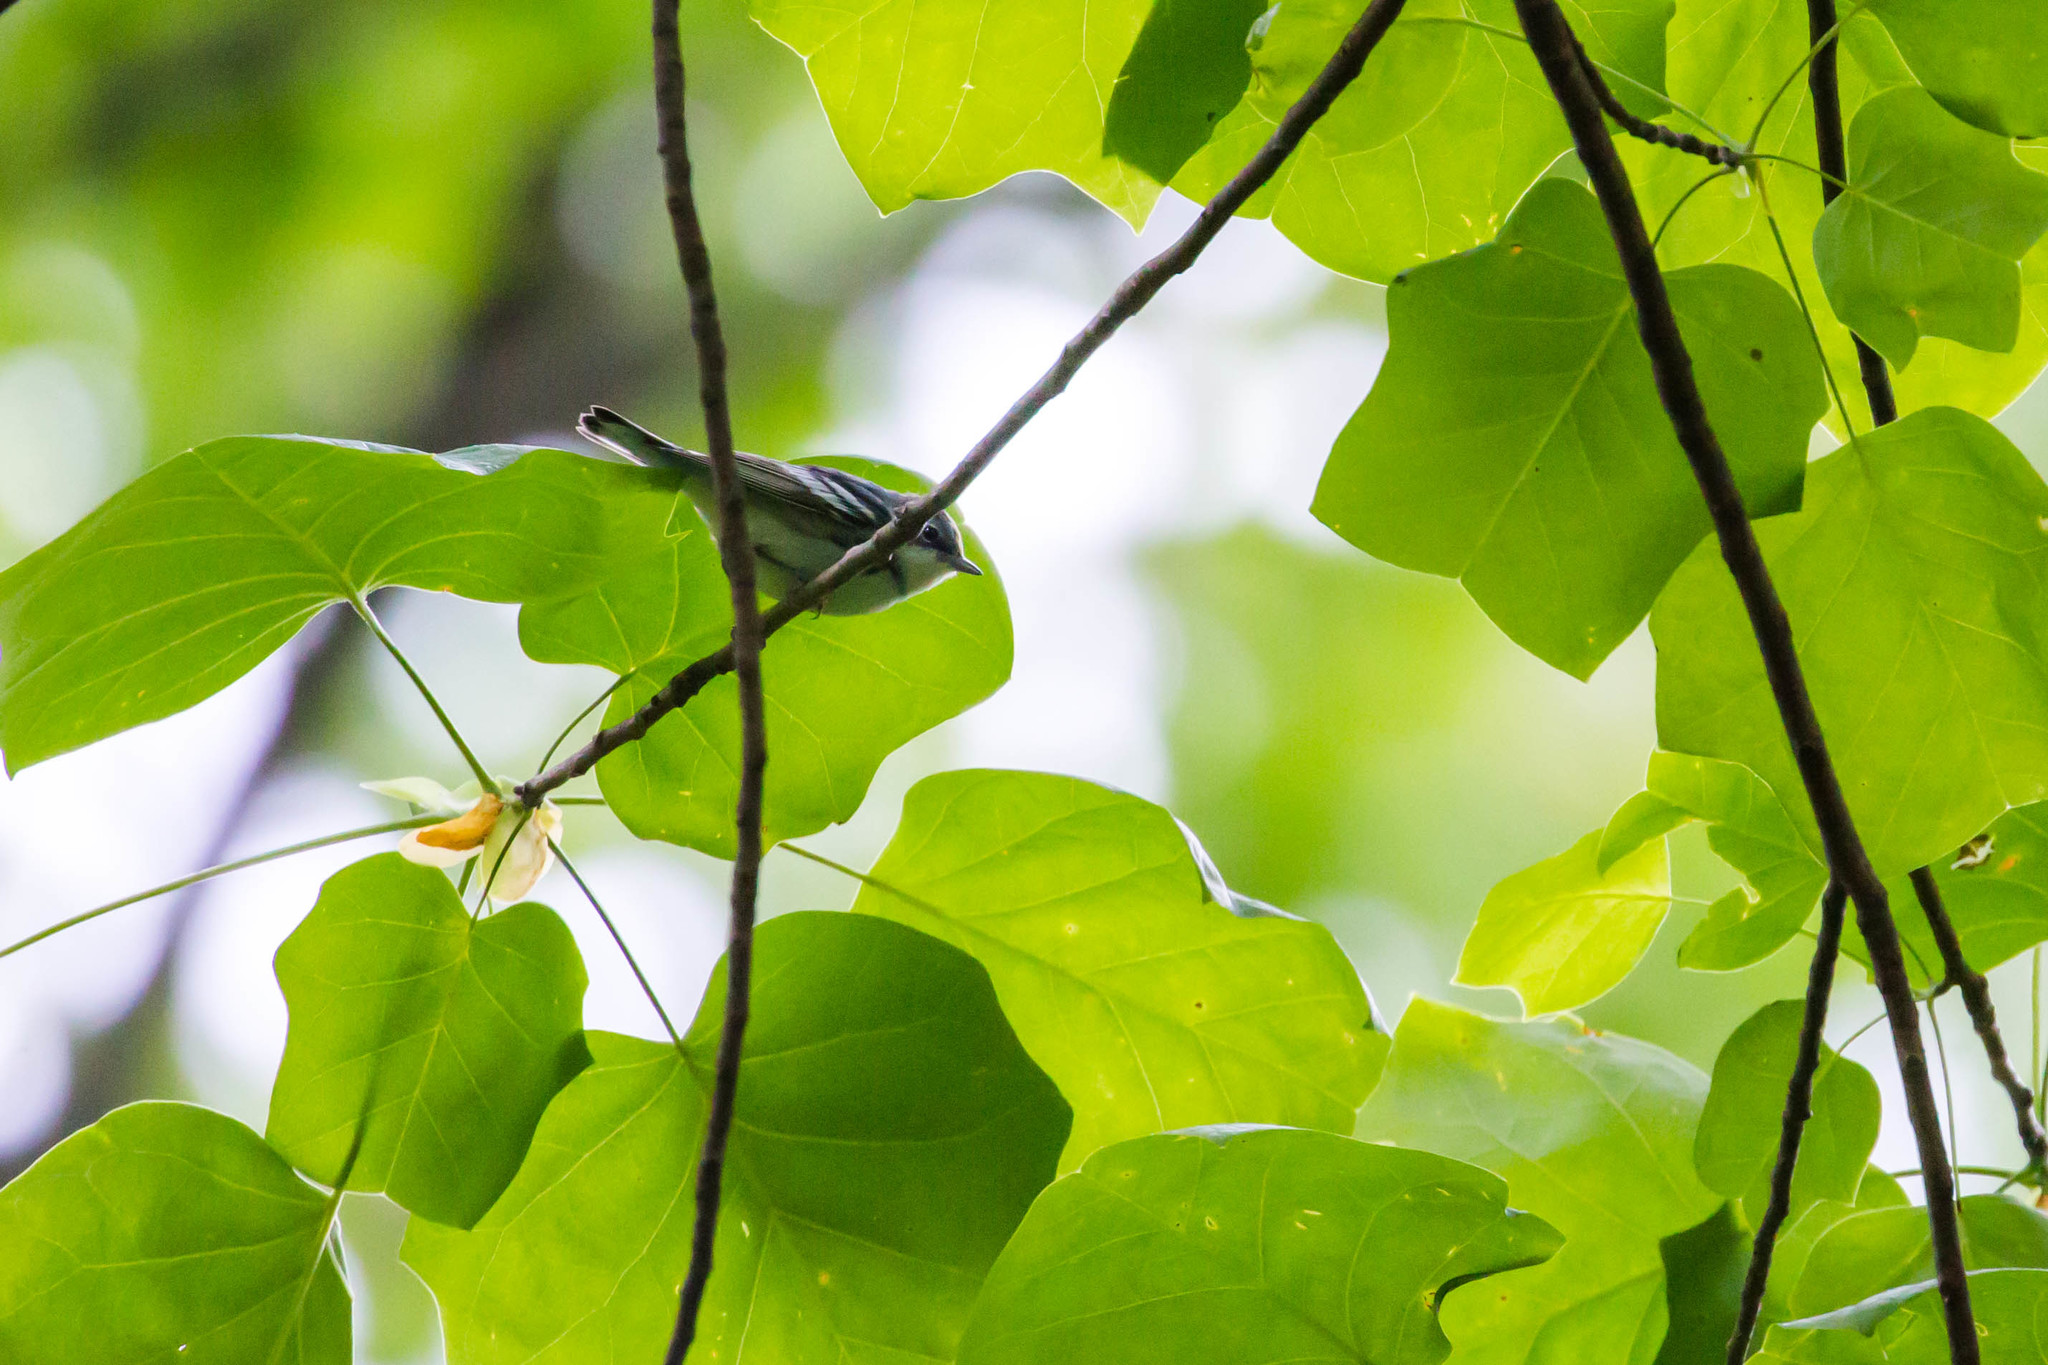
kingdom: Animalia
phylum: Chordata
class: Aves
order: Passeriformes
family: Parulidae
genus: Setophaga
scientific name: Setophaga cerulea
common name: Cerulean warbler
